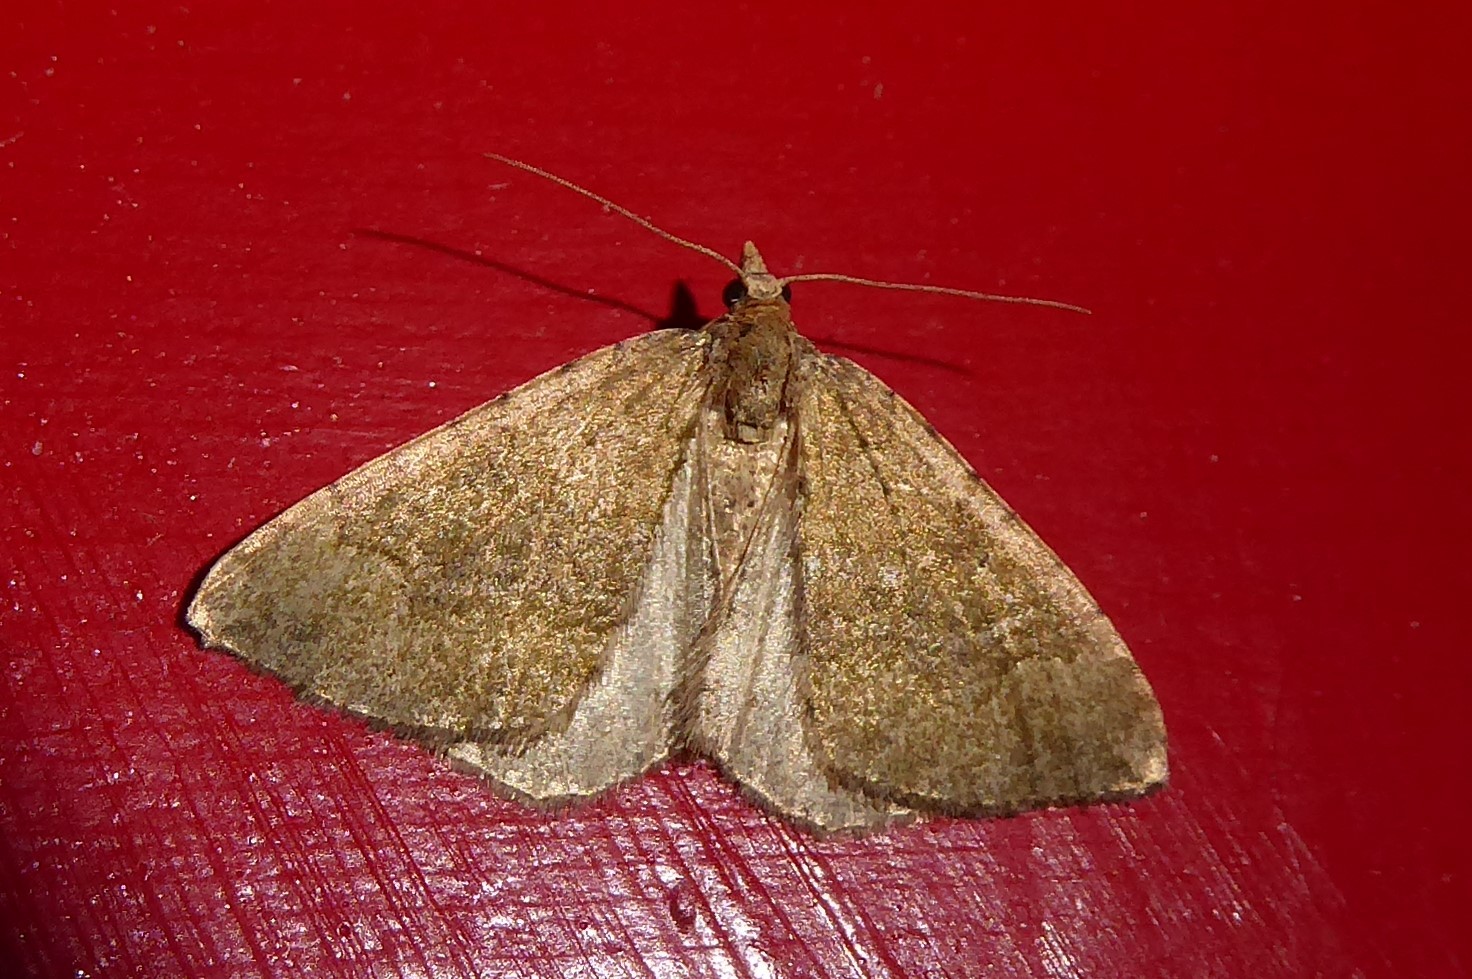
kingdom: Animalia
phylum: Arthropoda
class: Insecta
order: Lepidoptera
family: Geometridae
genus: Epyaxa
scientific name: Epyaxa rosearia
